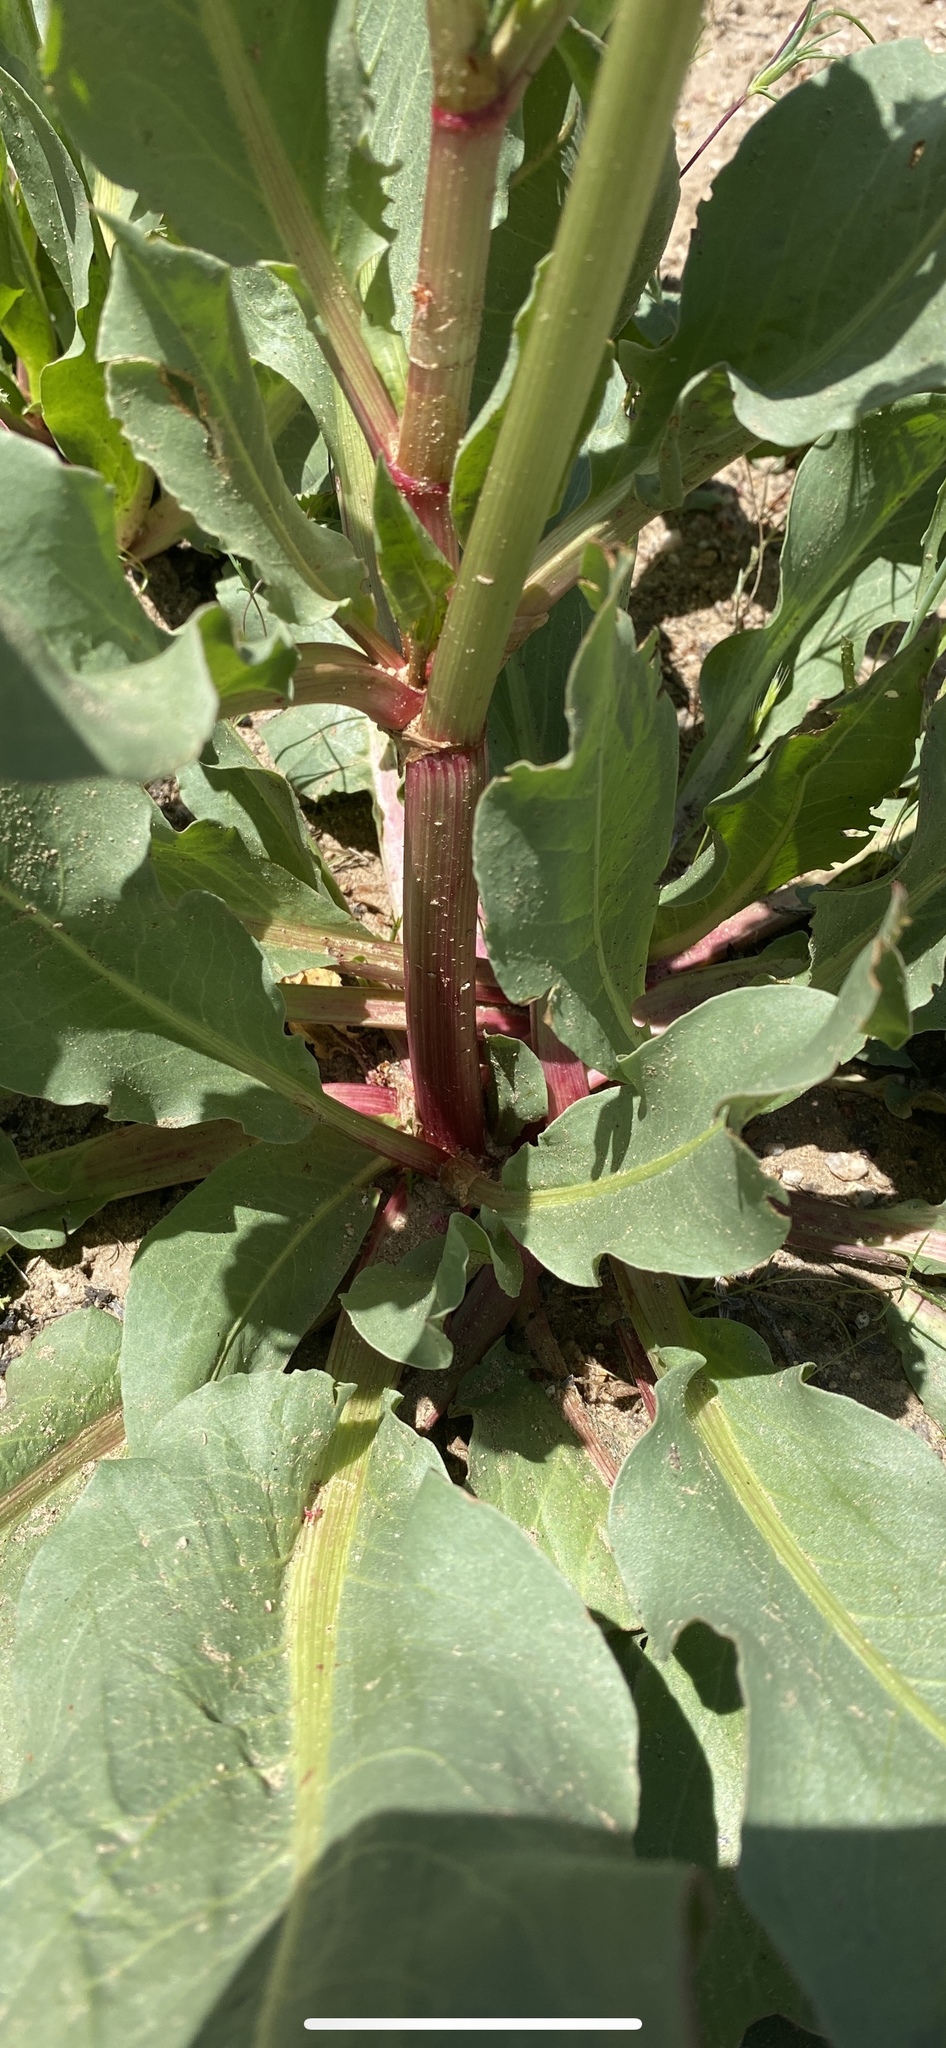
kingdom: Plantae
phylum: Tracheophyta
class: Magnoliopsida
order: Caryophyllales
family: Polygonaceae
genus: Rumex
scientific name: Rumex hymenosepalus
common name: Ganagra
